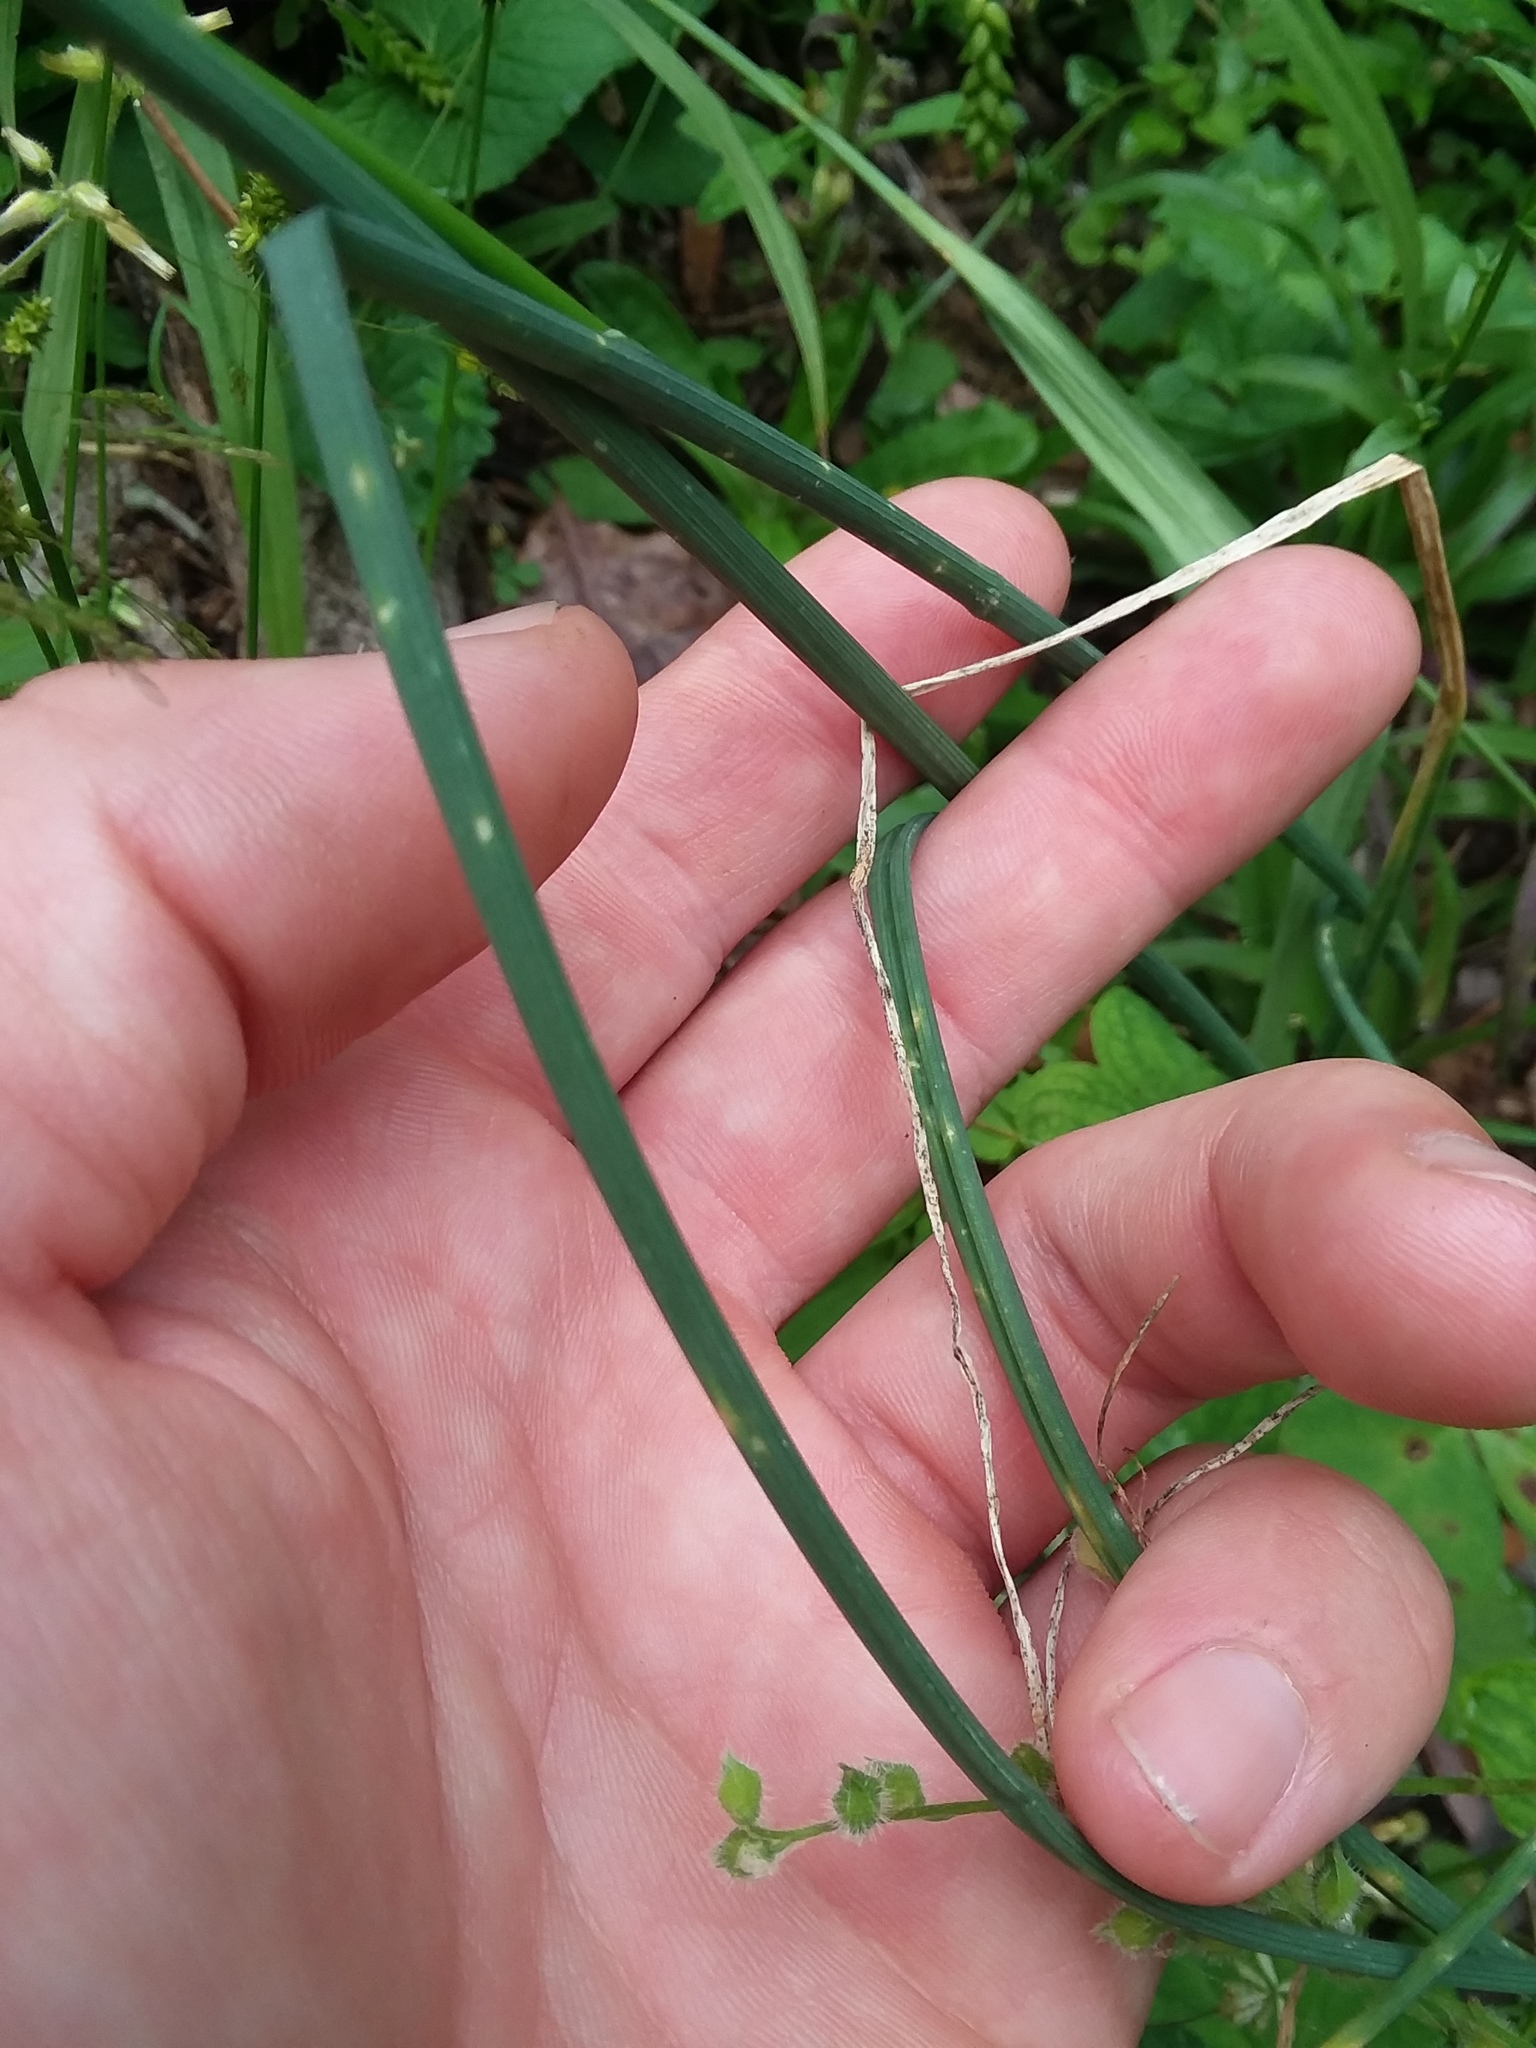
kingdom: Plantae
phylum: Tracheophyta
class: Liliopsida
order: Asparagales
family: Amaryllidaceae
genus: Allium
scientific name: Allium vineale
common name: Crow garlic
